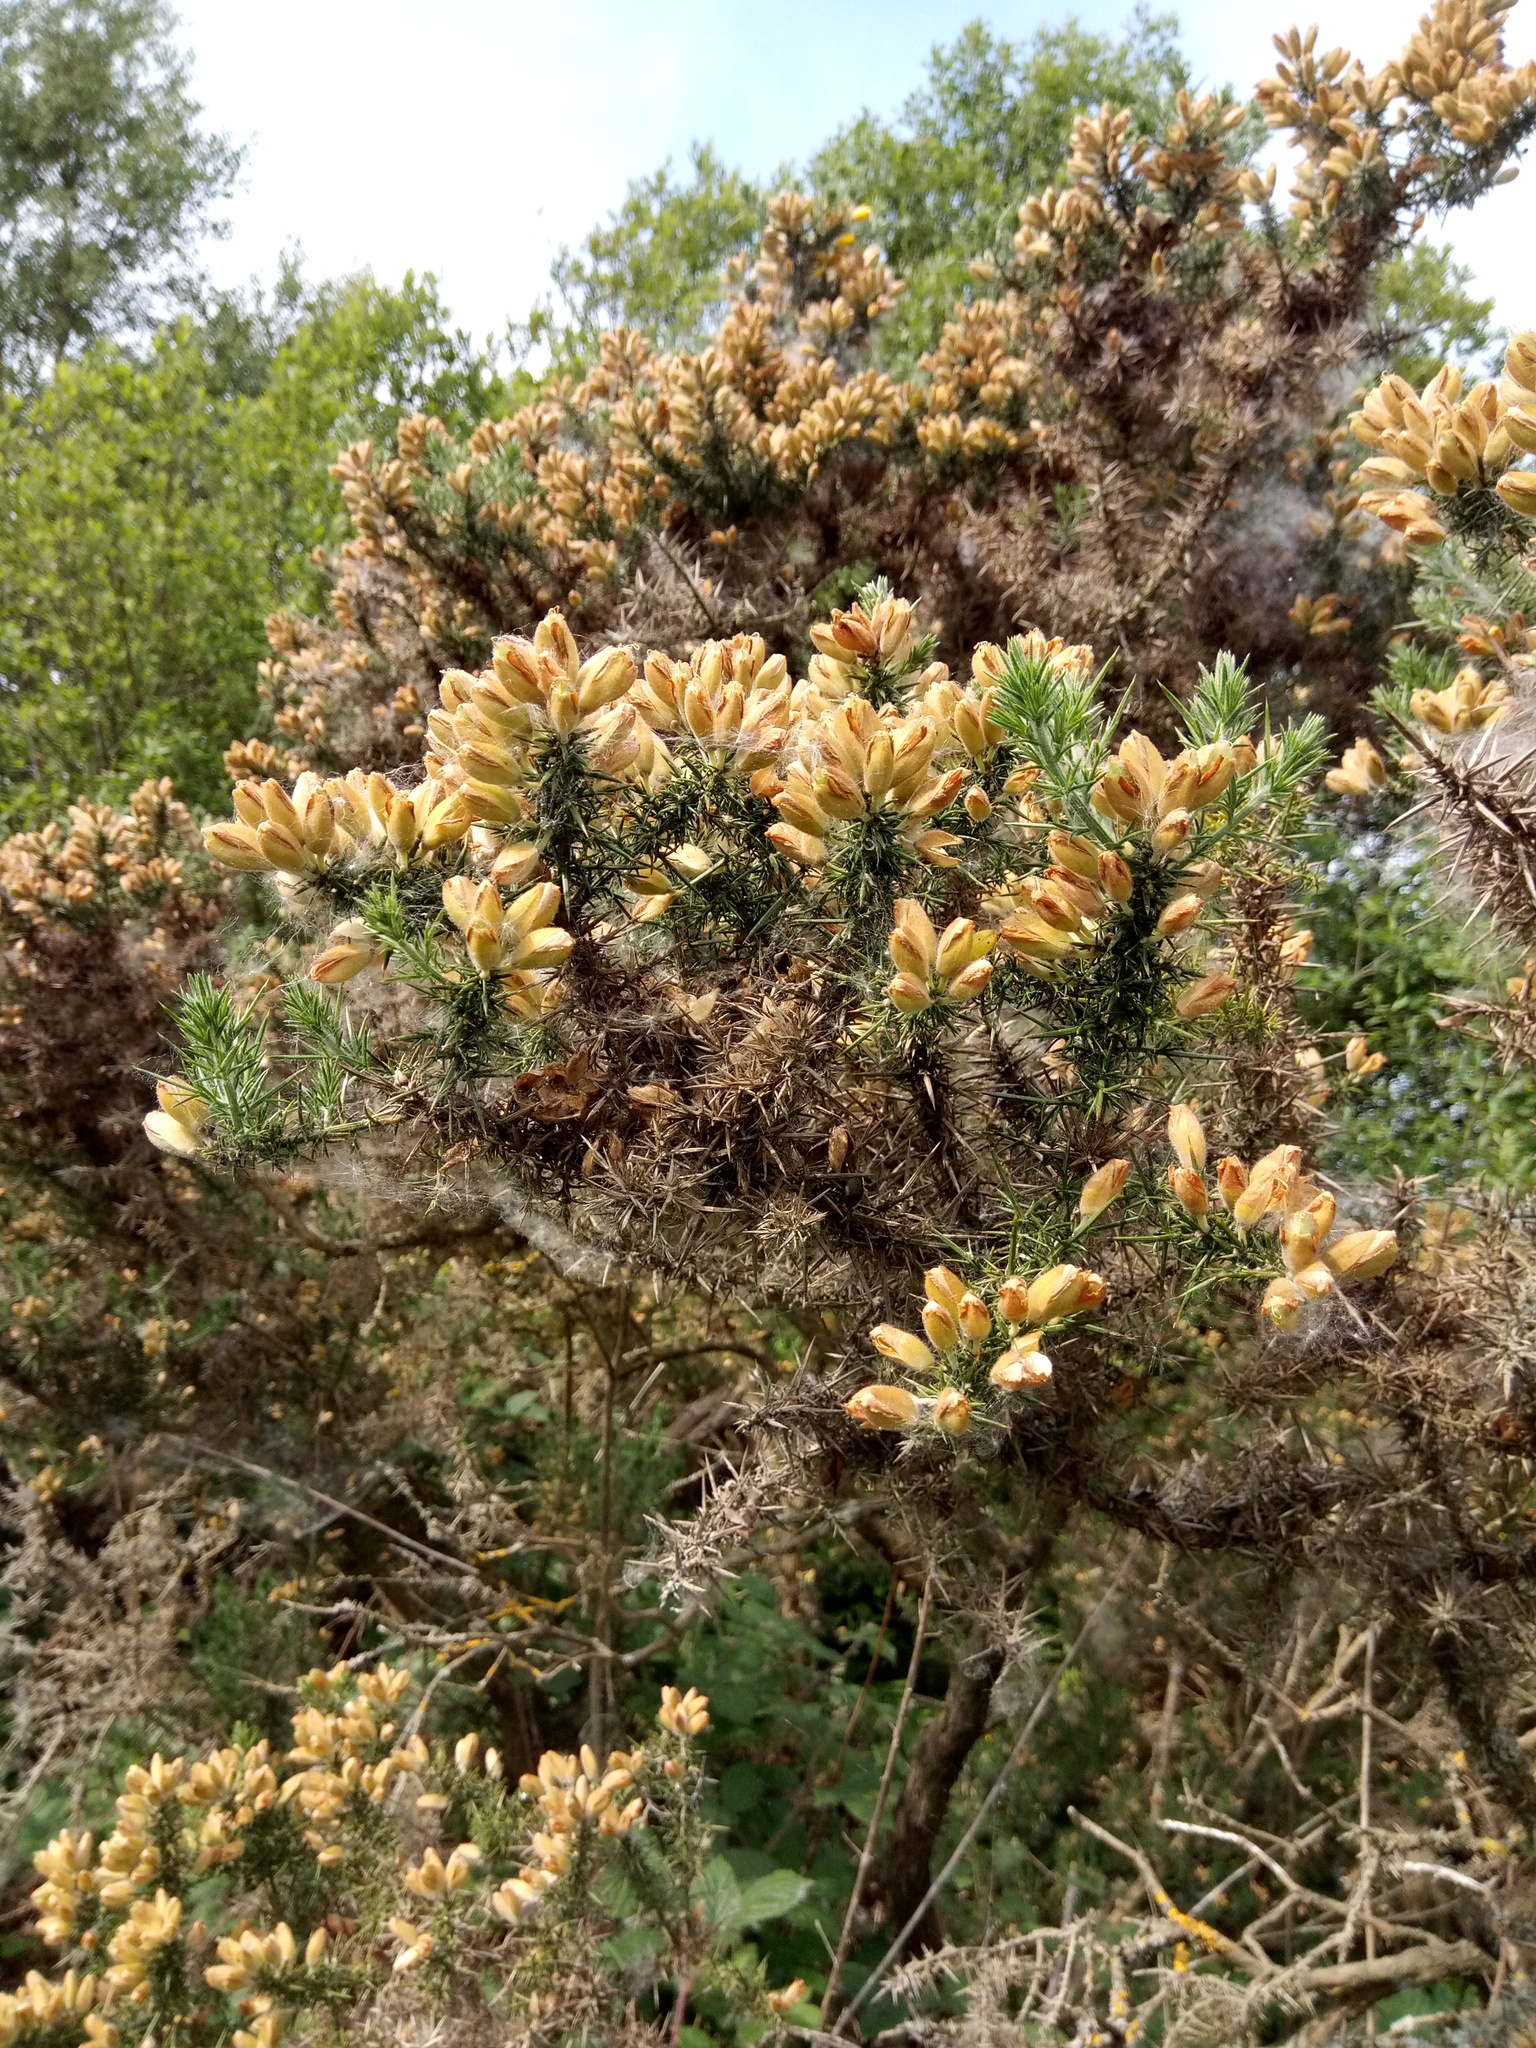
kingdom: Plantae
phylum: Tracheophyta
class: Magnoliopsida
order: Fabales
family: Fabaceae
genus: Ulex
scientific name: Ulex europaeus
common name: Common gorse
